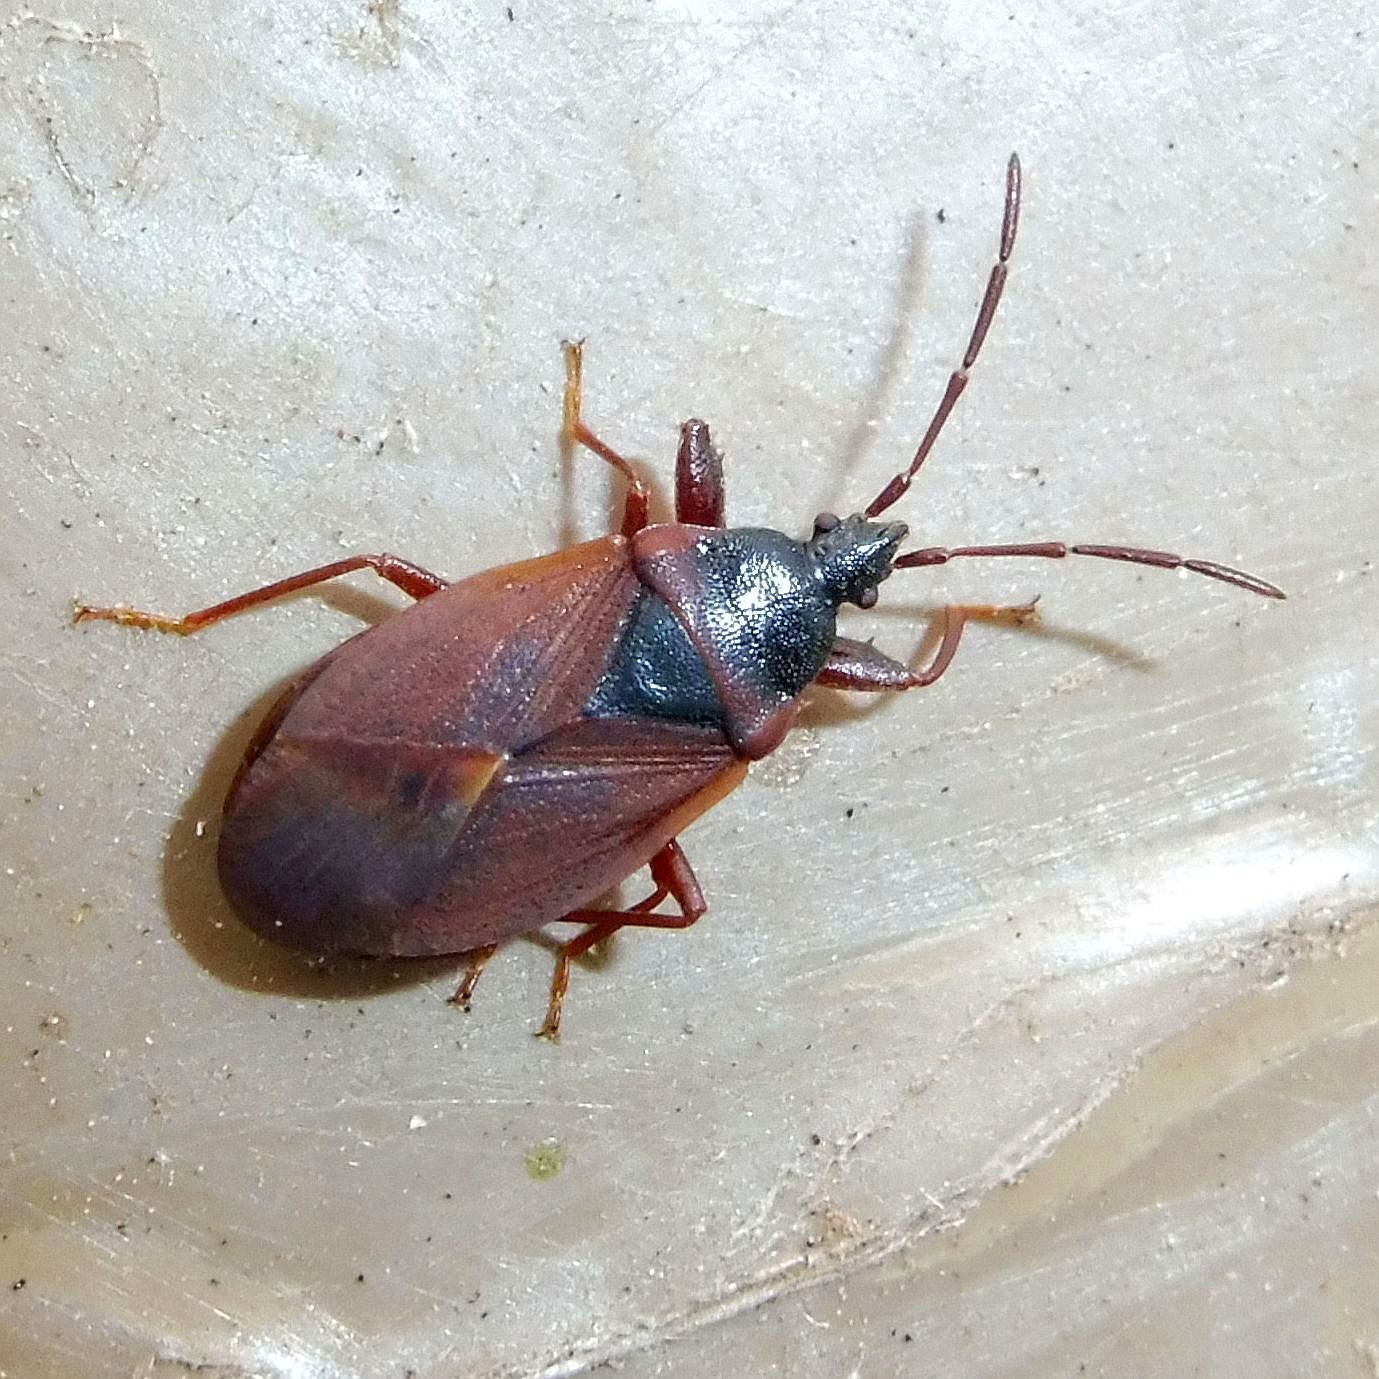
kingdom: Animalia
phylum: Arthropoda
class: Insecta
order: Hemiptera
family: Rhyparochromidae
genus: Gastrodes
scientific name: Gastrodes grossipes
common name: Pine cone bug
